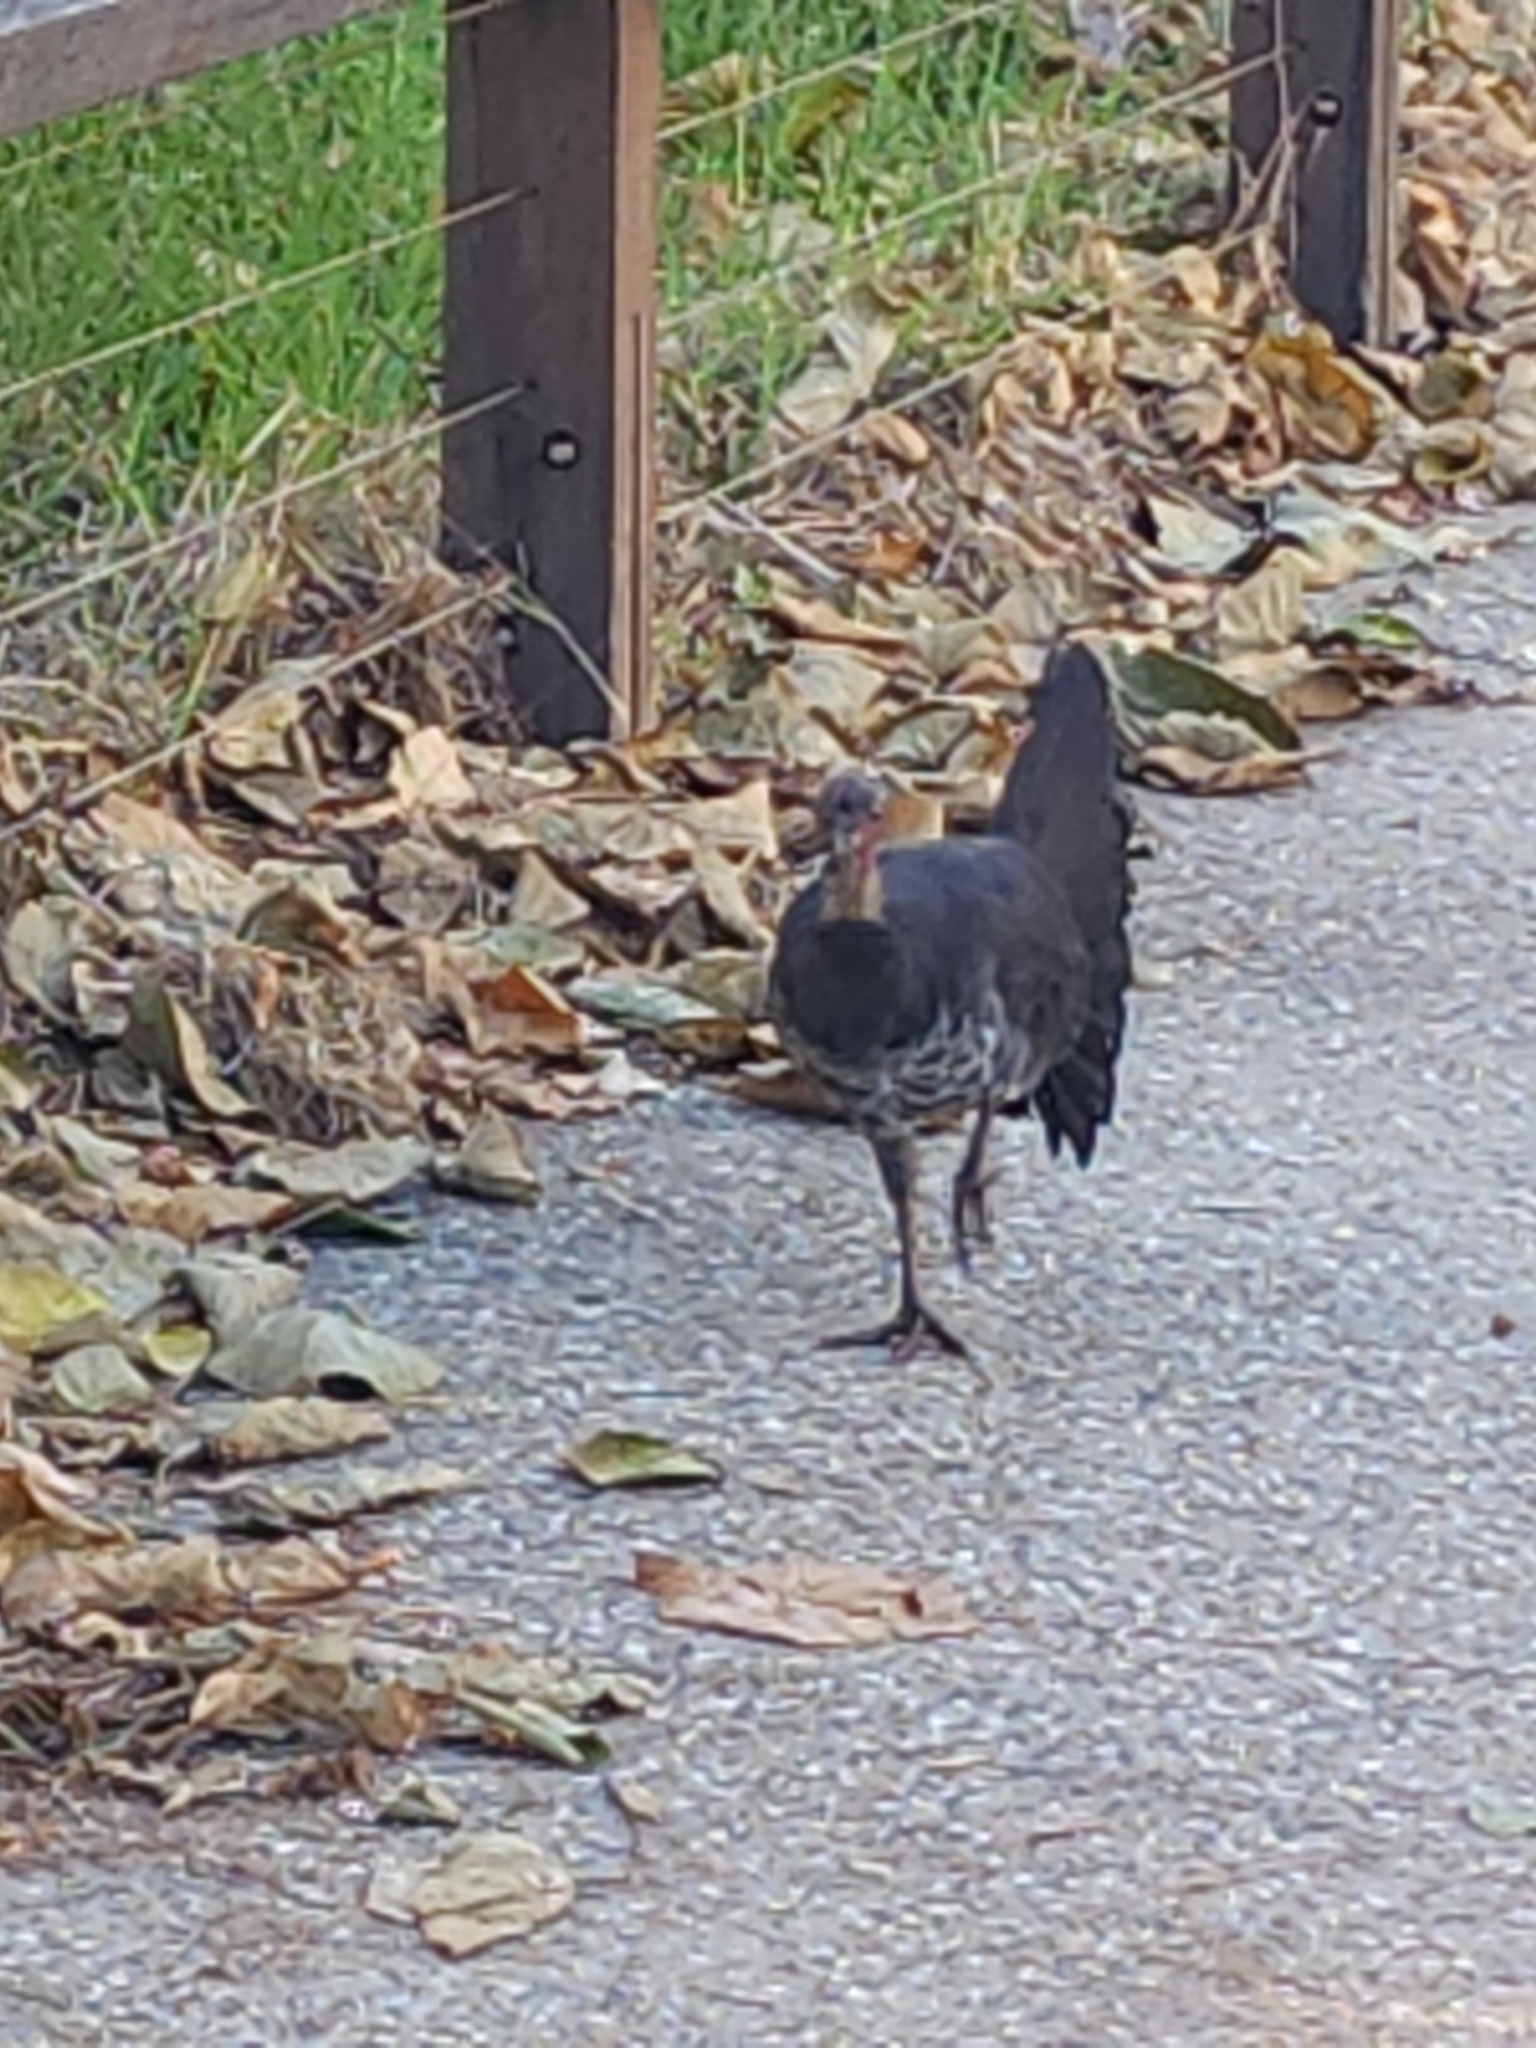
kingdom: Animalia
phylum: Chordata
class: Aves
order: Galliformes
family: Megapodiidae
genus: Alectura
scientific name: Alectura lathami
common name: Australian brushturkey
